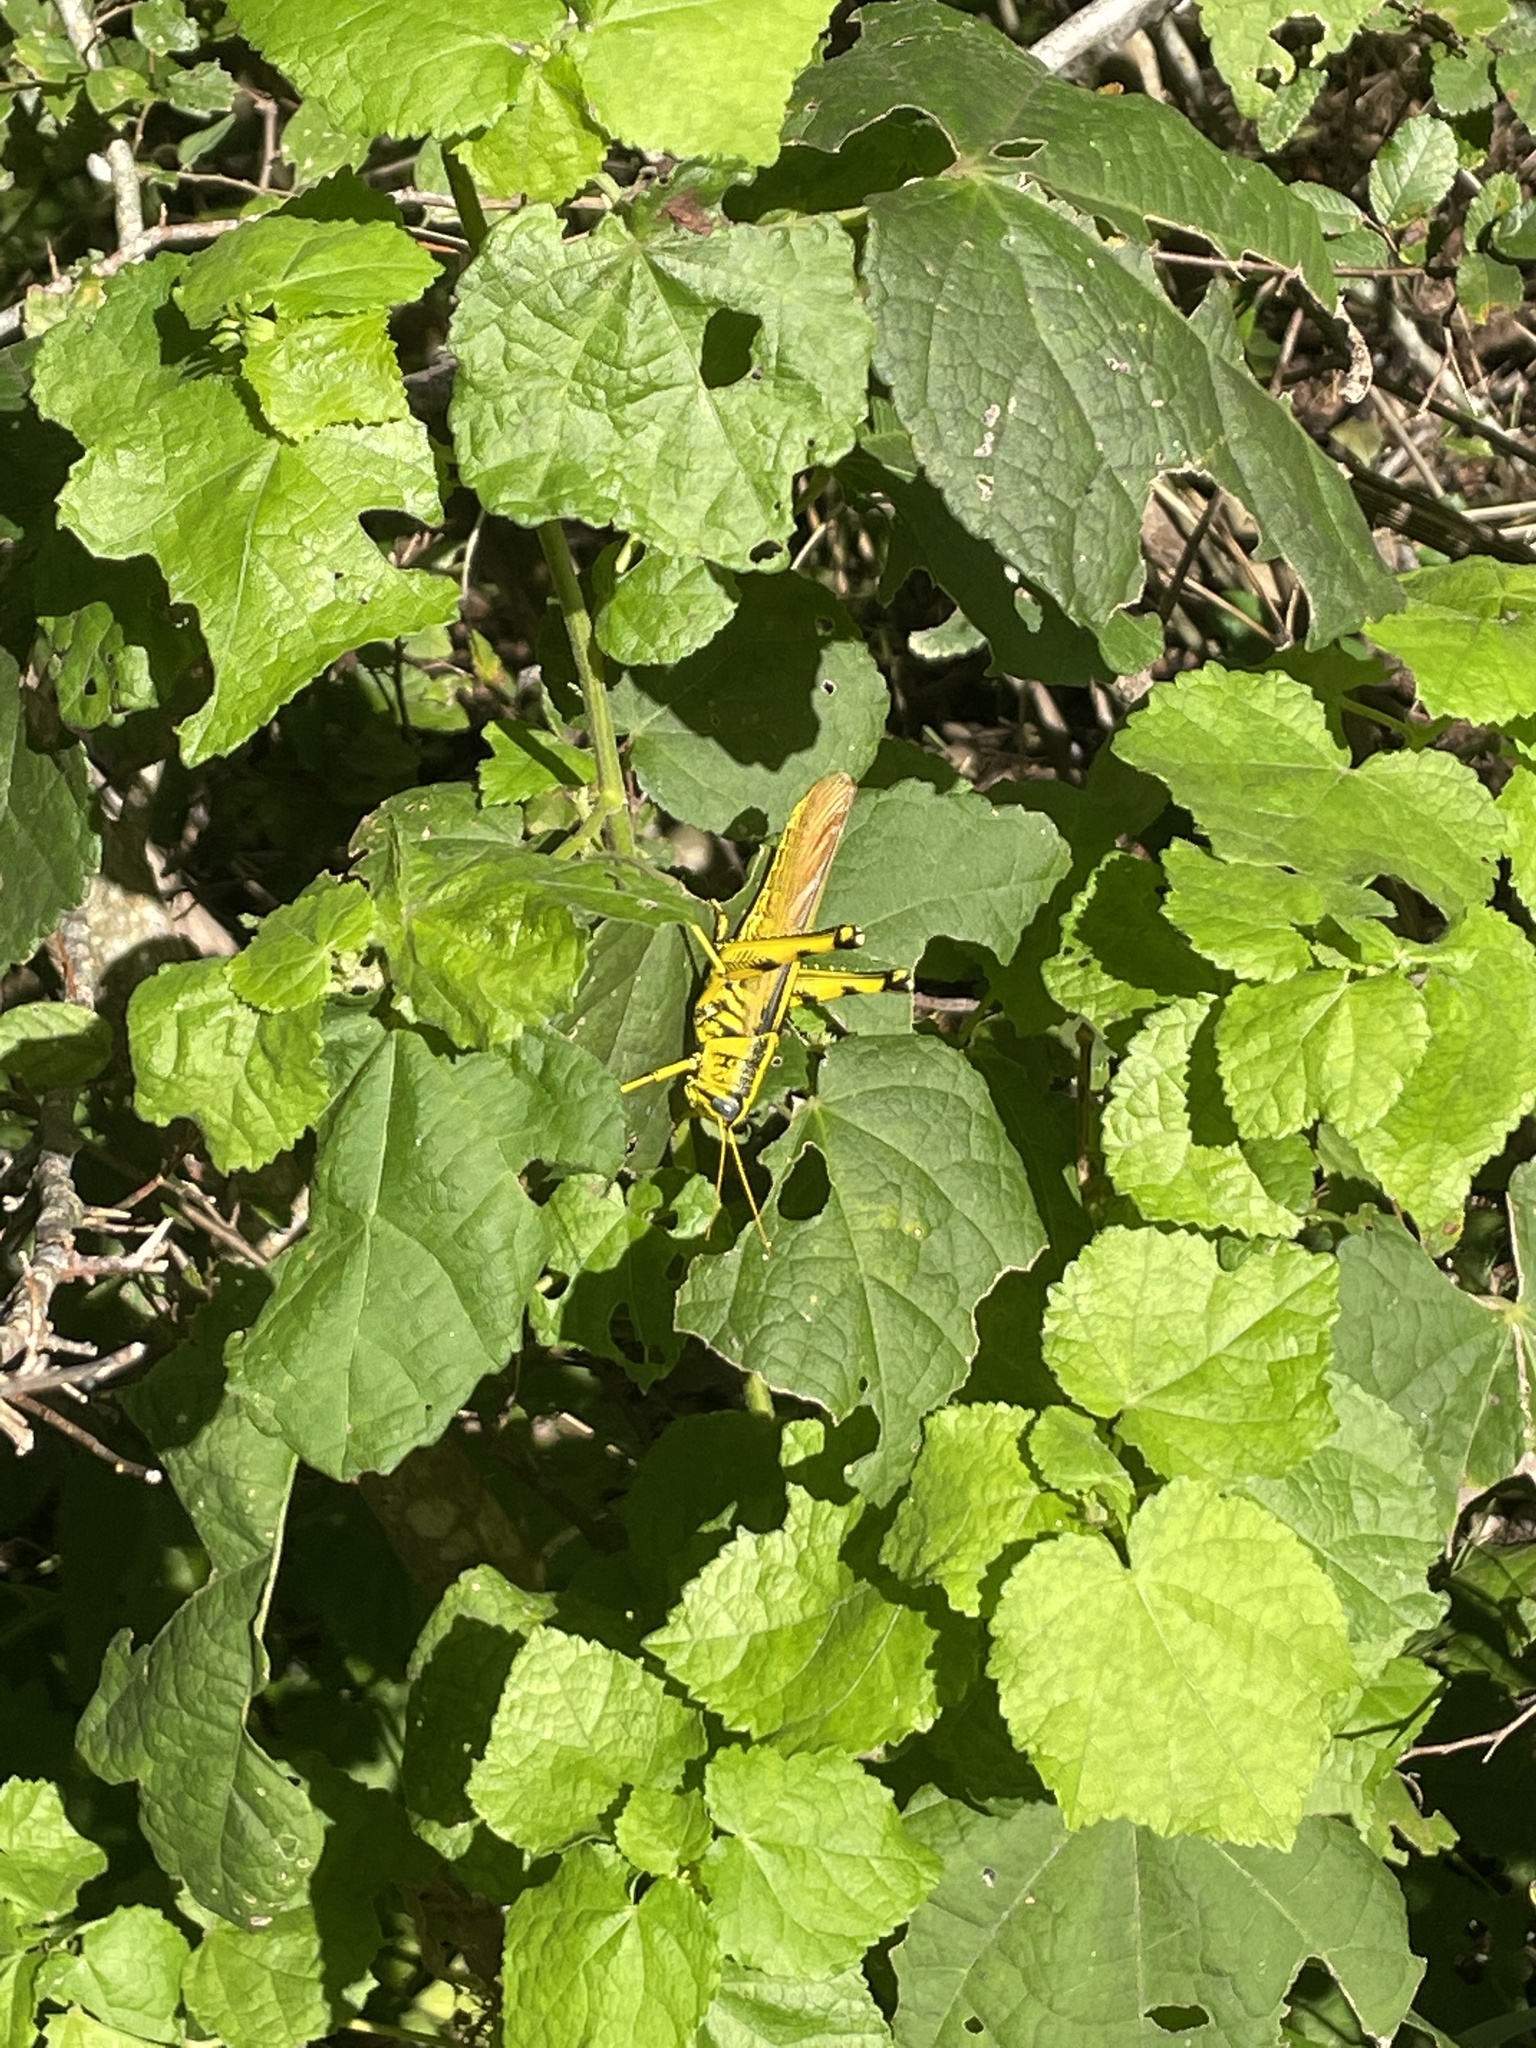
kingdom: Animalia
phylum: Arthropoda
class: Insecta
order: Orthoptera
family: Acrididae
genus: Schistocerca
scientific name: Schistocerca lineata
